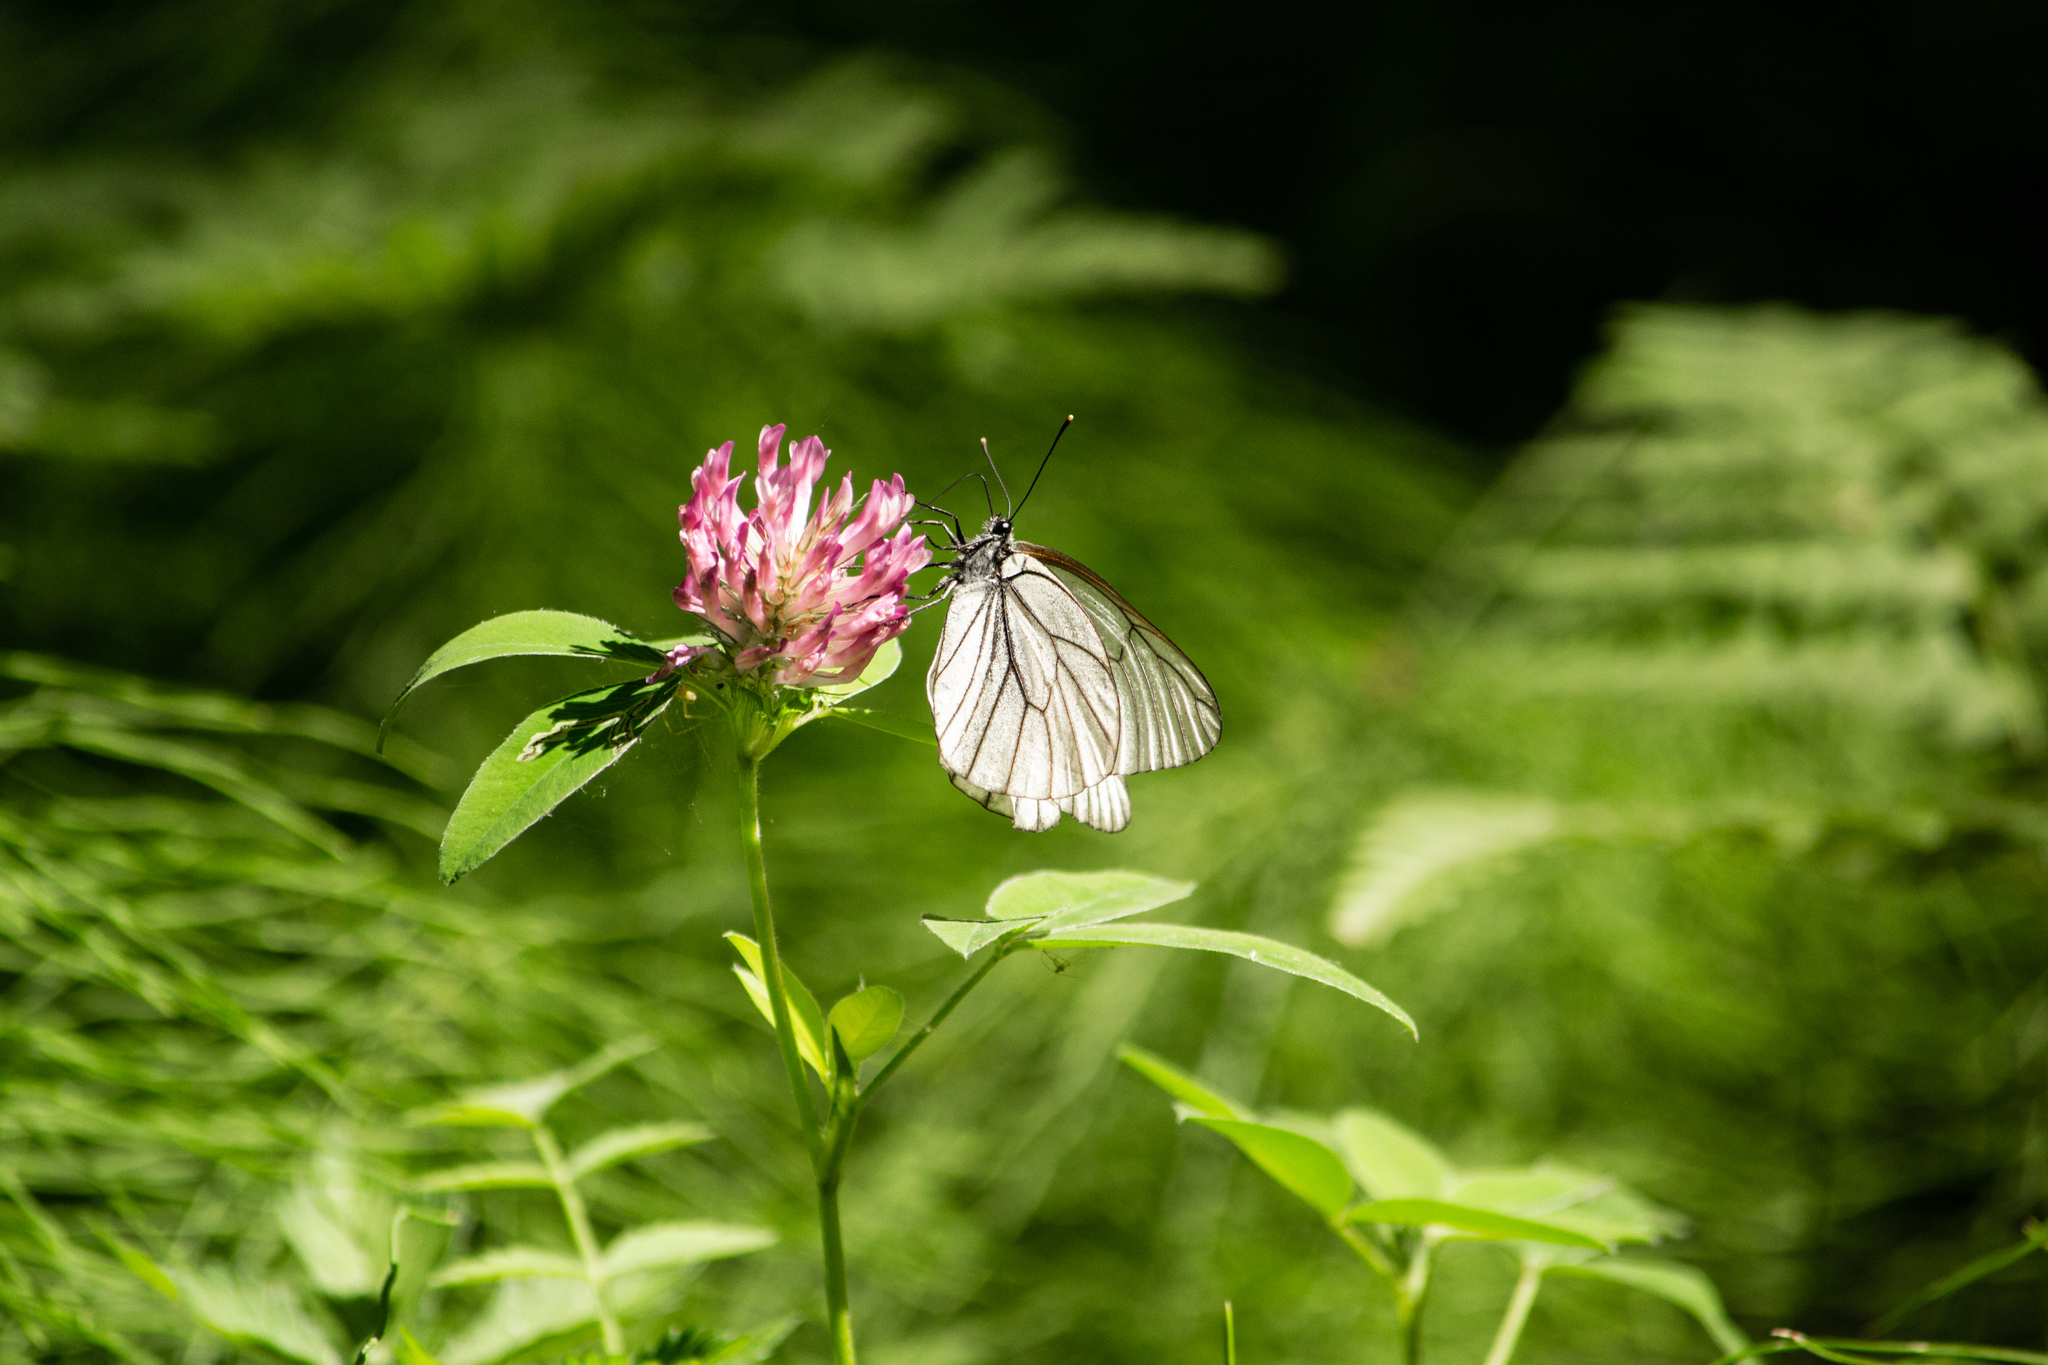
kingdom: Animalia
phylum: Arthropoda
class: Insecta
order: Lepidoptera
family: Pieridae
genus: Aporia
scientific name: Aporia crataegi
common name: Black-veined white
